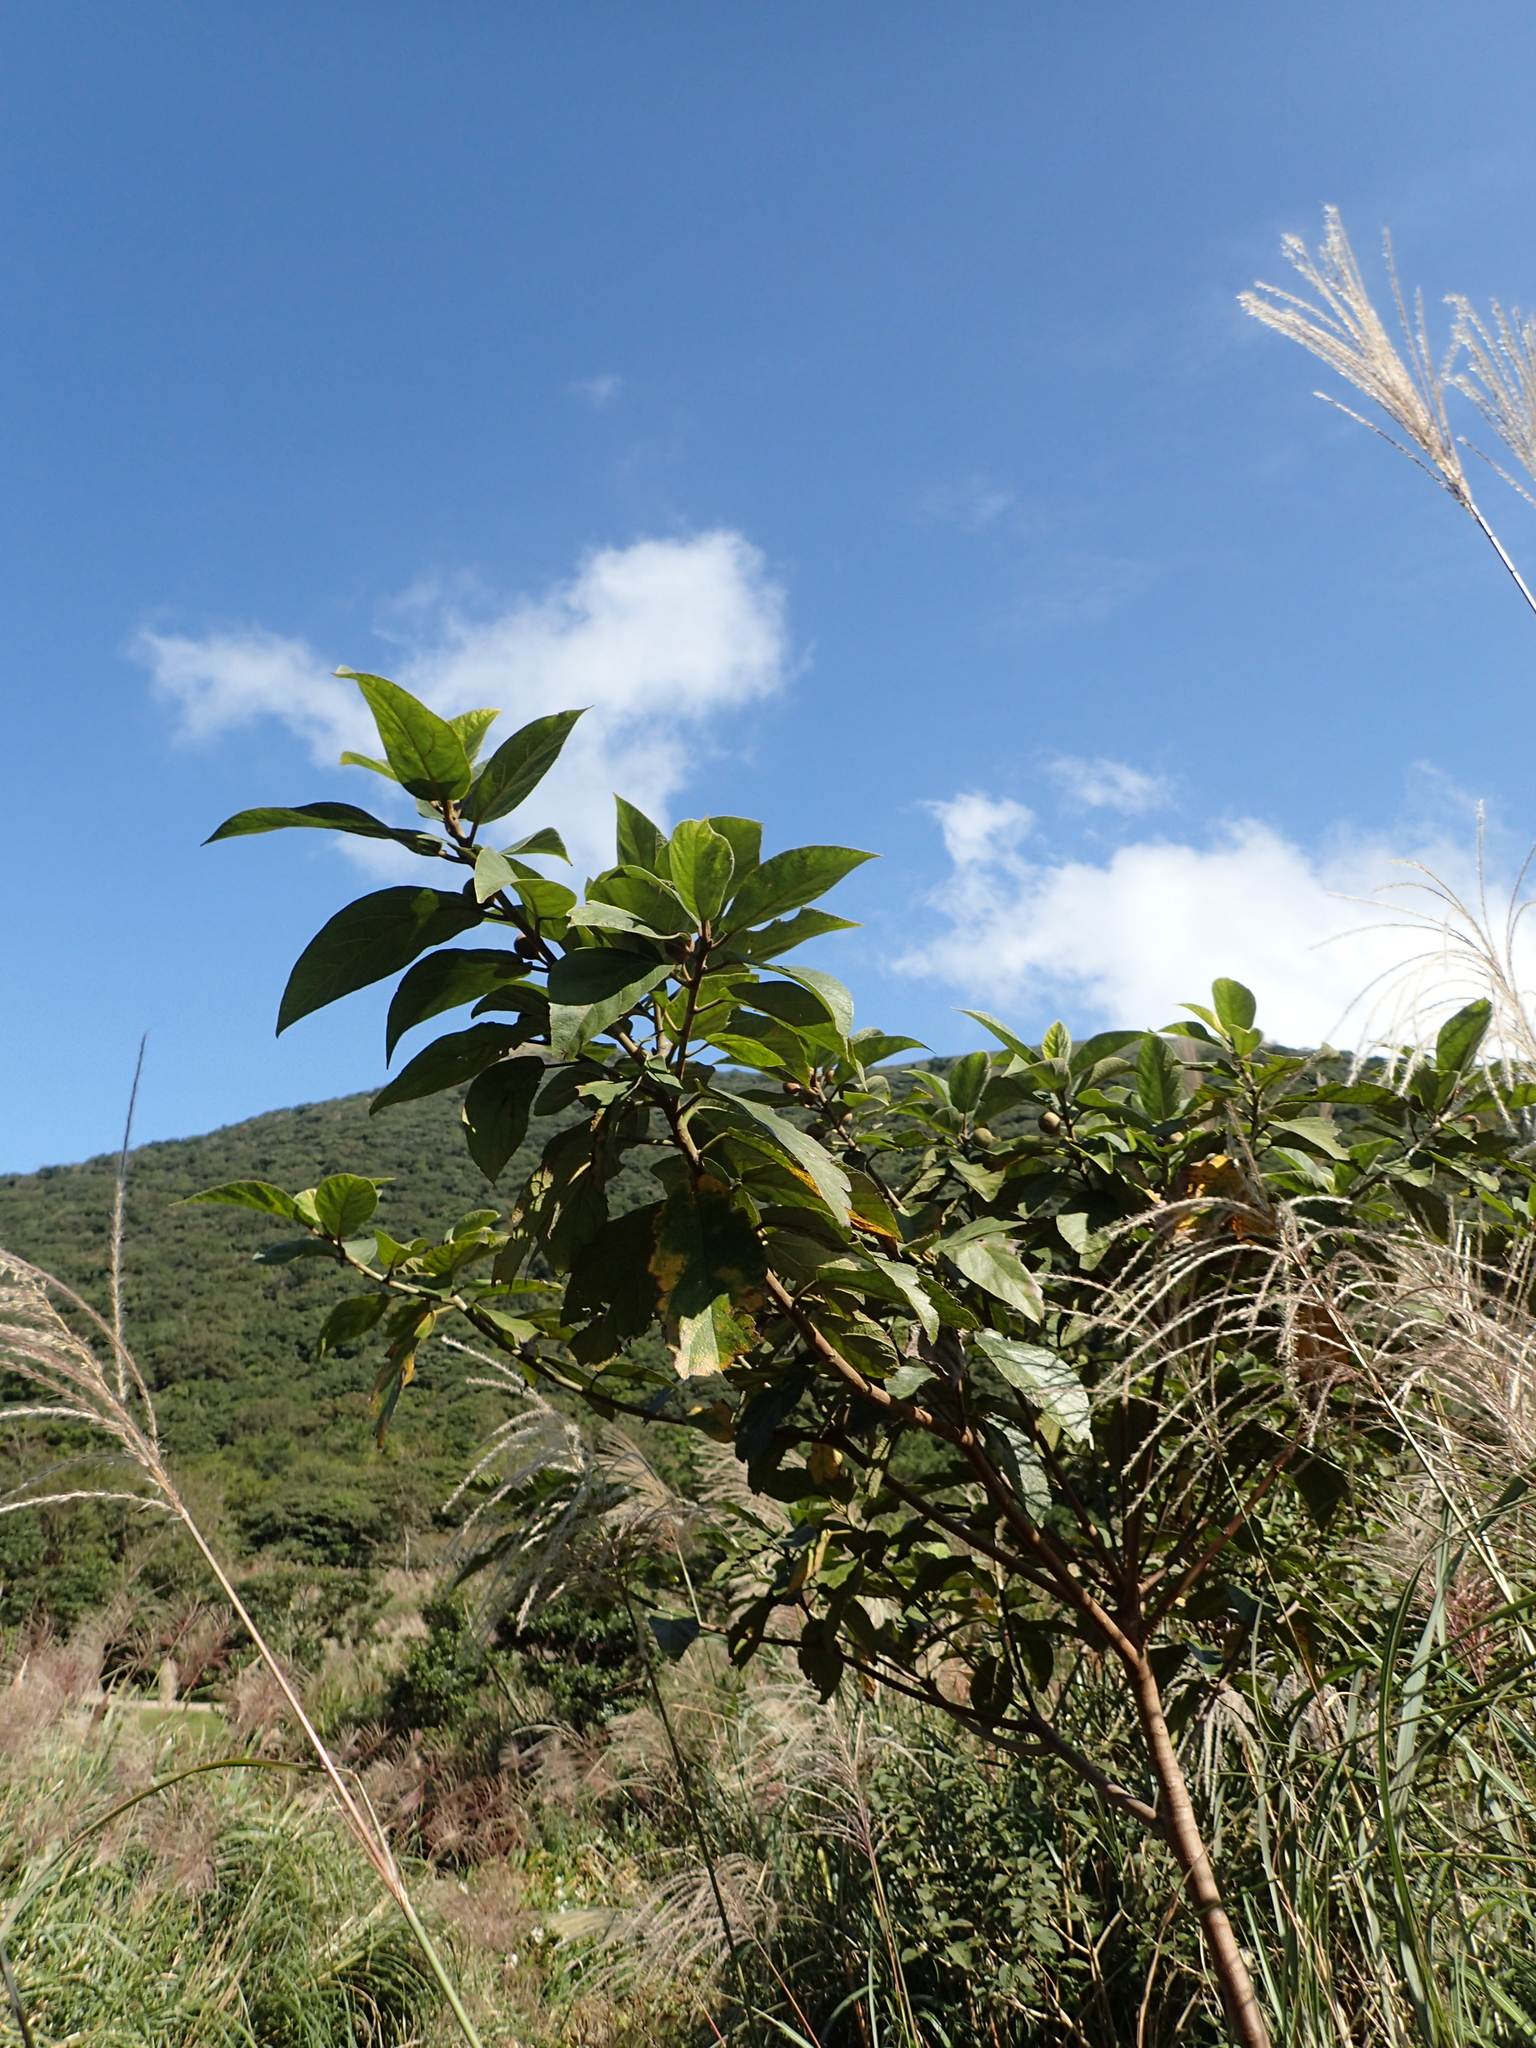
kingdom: Plantae
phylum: Tracheophyta
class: Magnoliopsida
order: Rosales
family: Moraceae
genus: Ficus
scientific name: Ficus erecta
